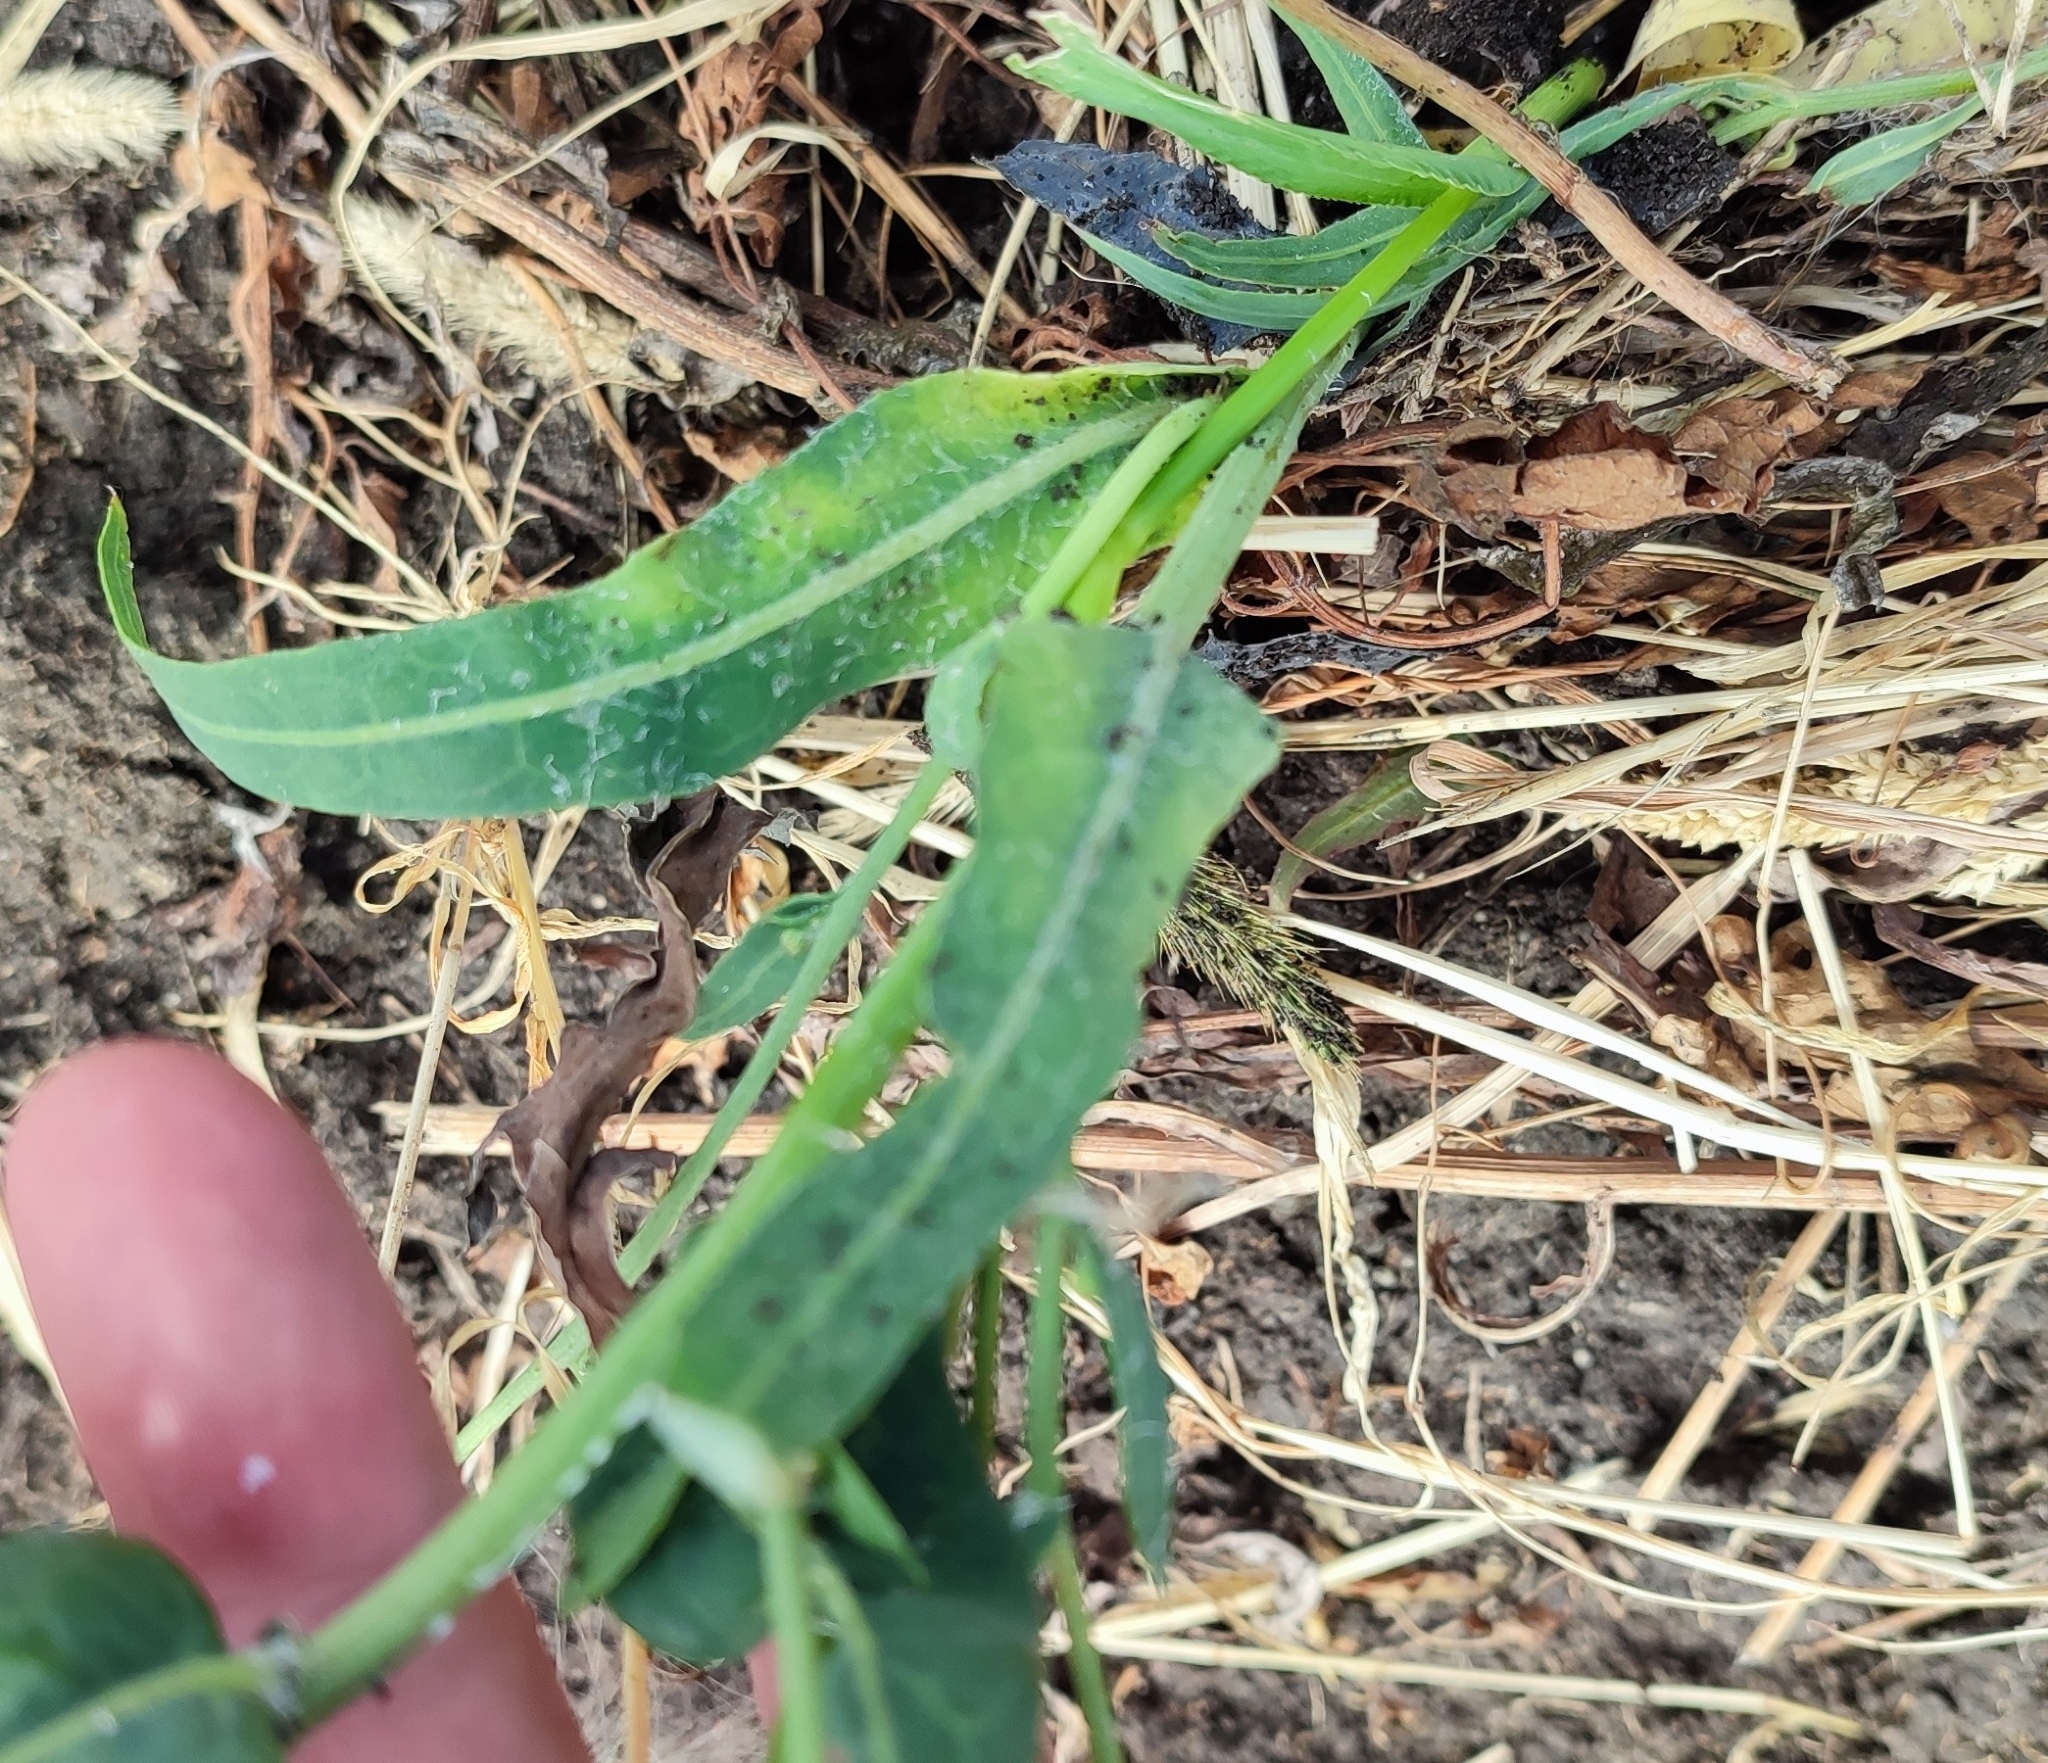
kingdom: Plantae
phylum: Tracheophyta
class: Magnoliopsida
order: Asterales
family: Asteraceae
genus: Lactuca
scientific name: Lactuca tatarica
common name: Blue lettuce
